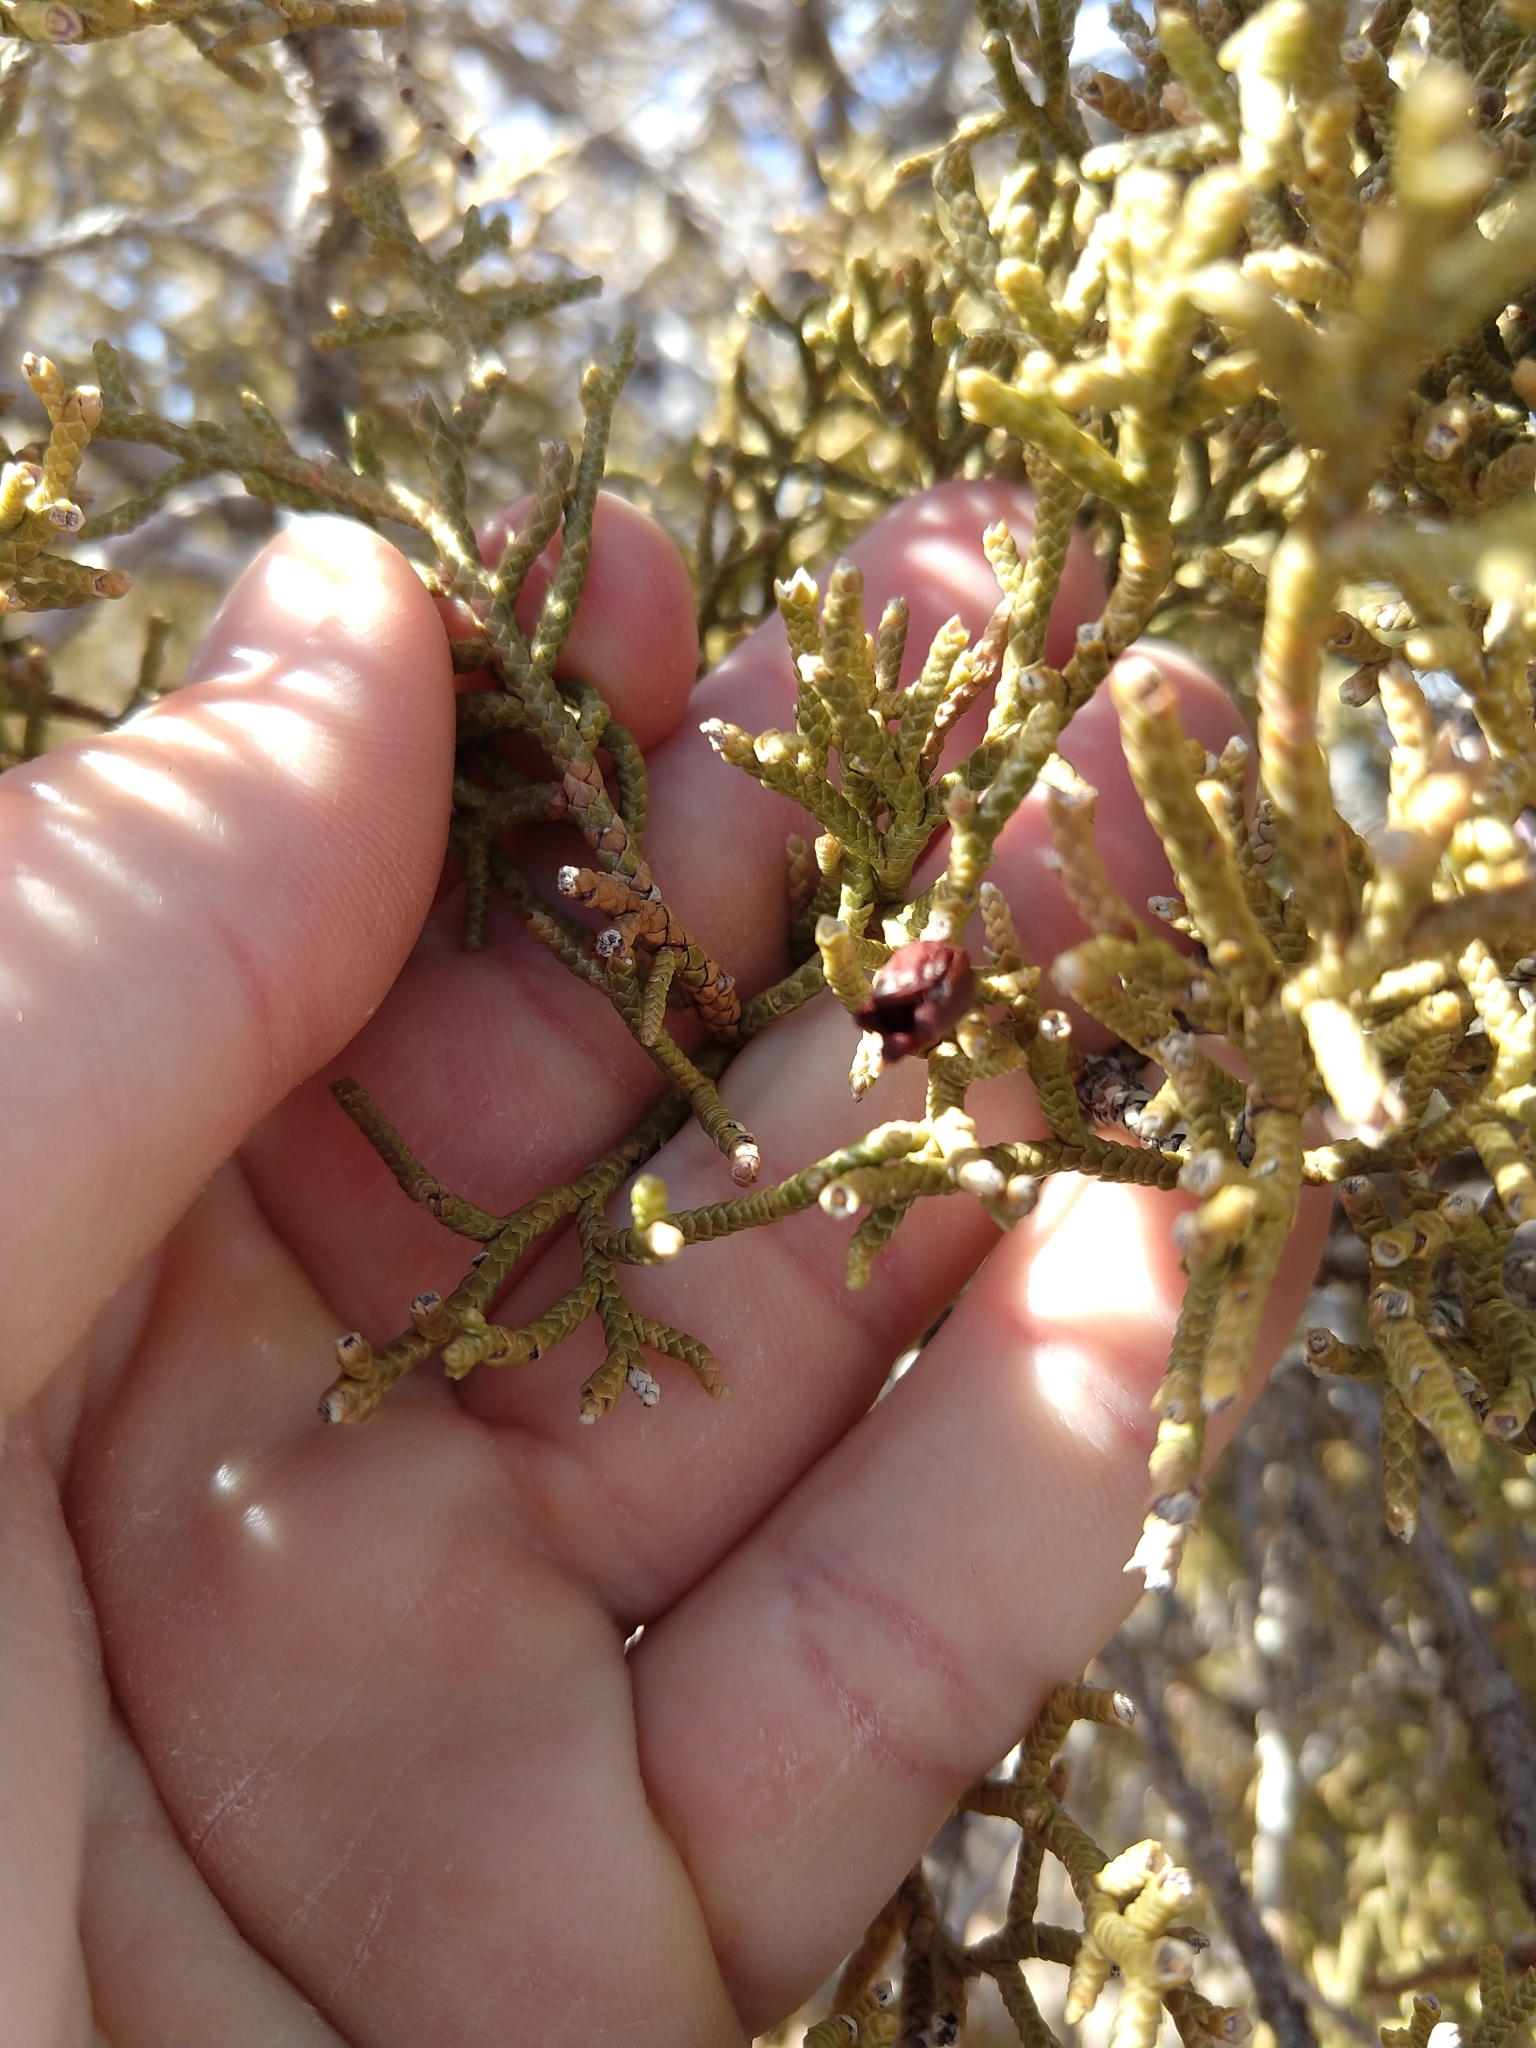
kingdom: Animalia
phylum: Arthropoda
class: Insecta
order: Diptera
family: Cecidomyiidae
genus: Walshomyia
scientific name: Walshomyia juniperina
